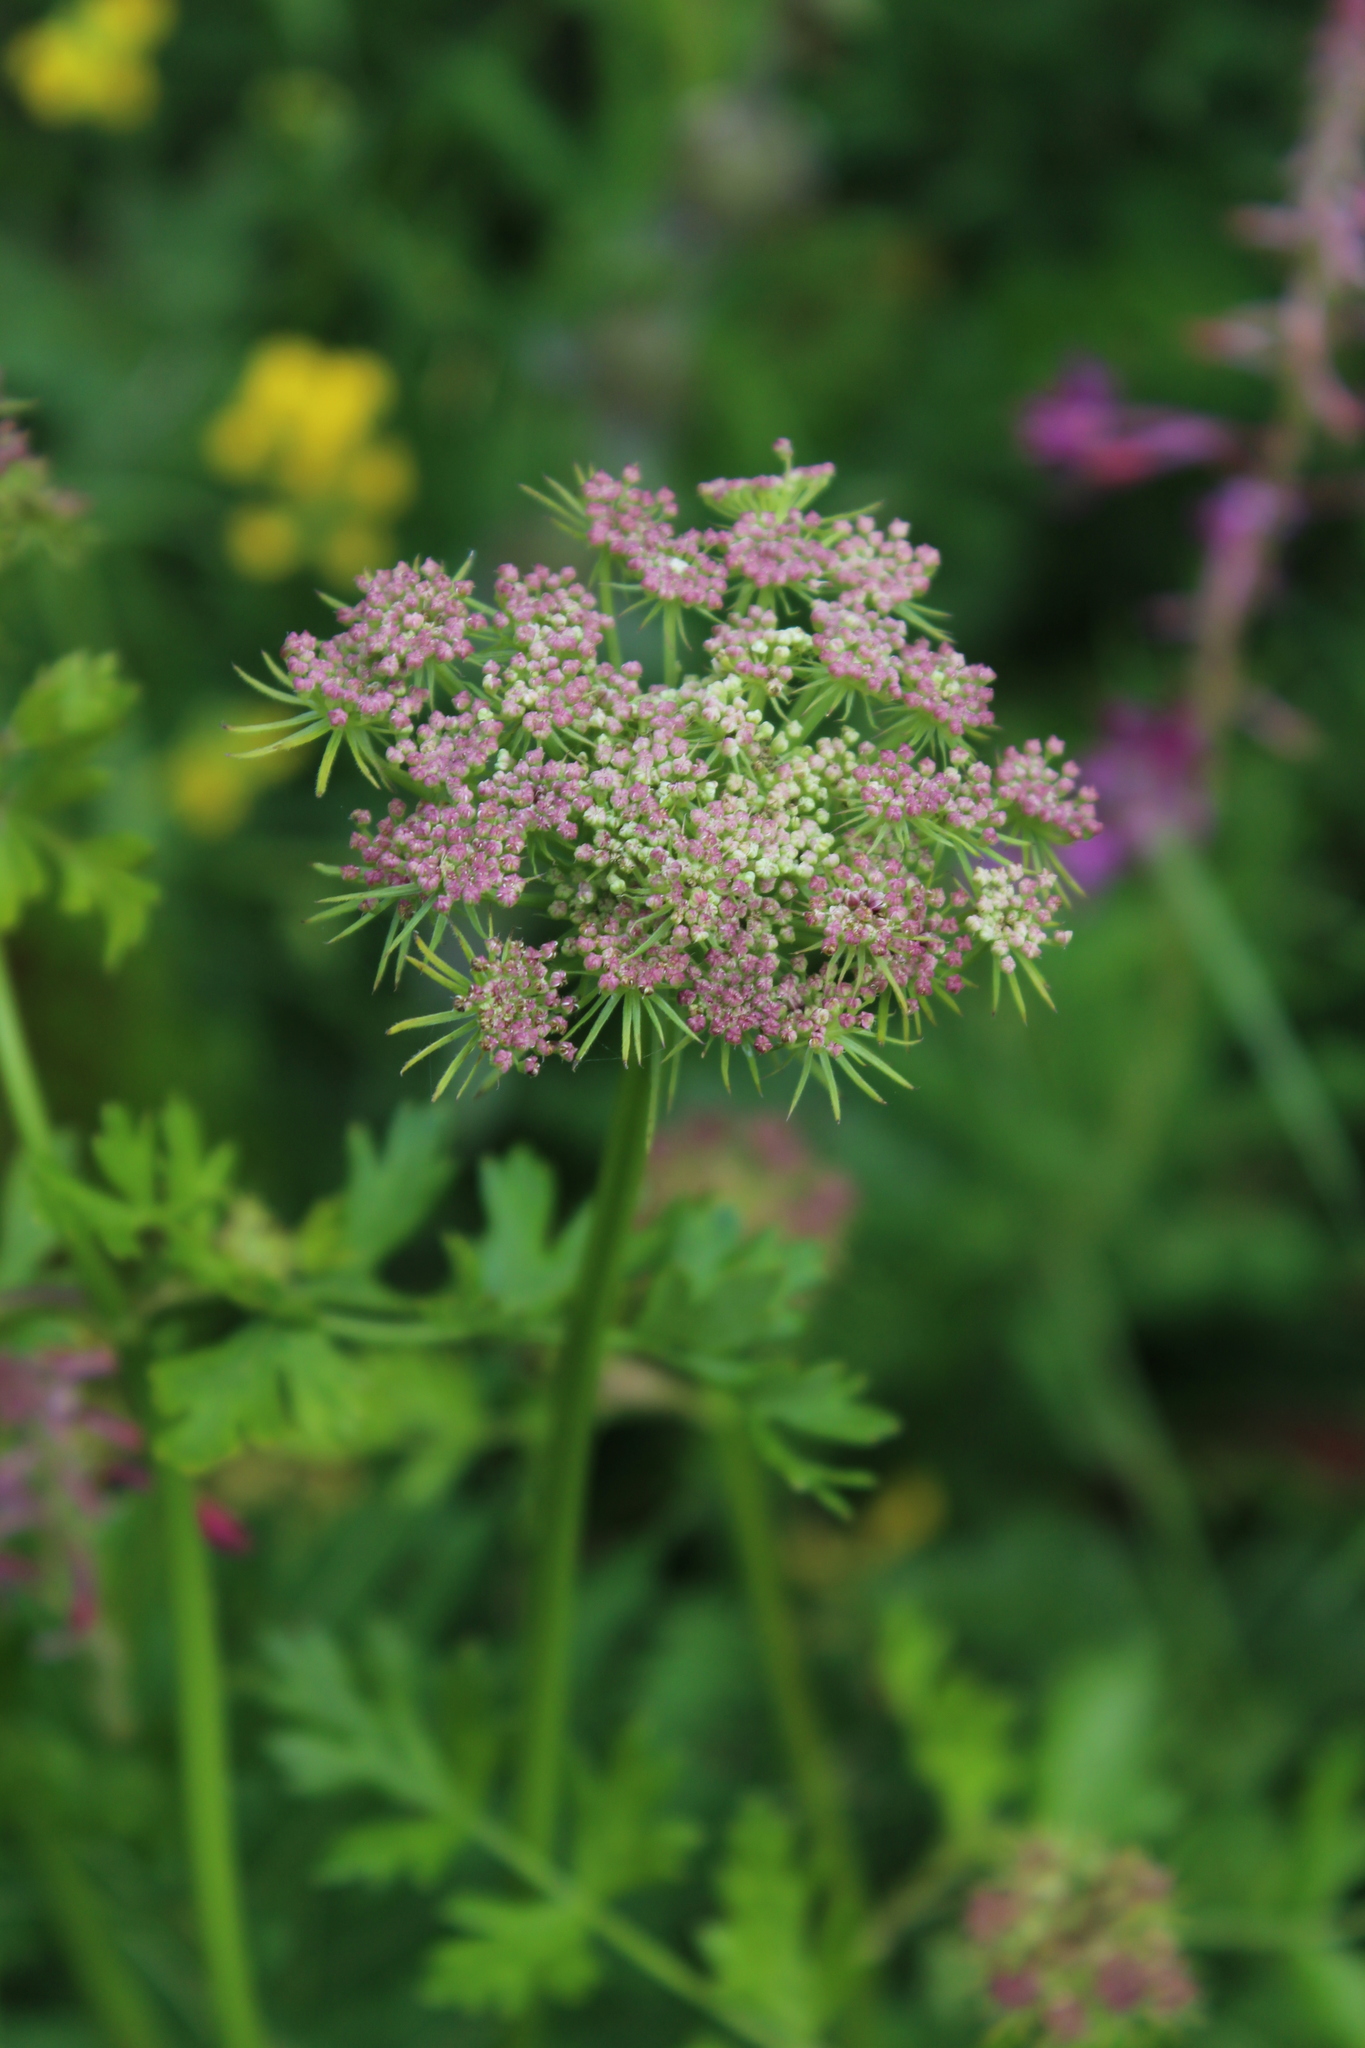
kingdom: Plantae
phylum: Tracheophyta
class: Magnoliopsida
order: Apiales
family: Apiaceae
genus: Laser
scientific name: Laser stevenii
